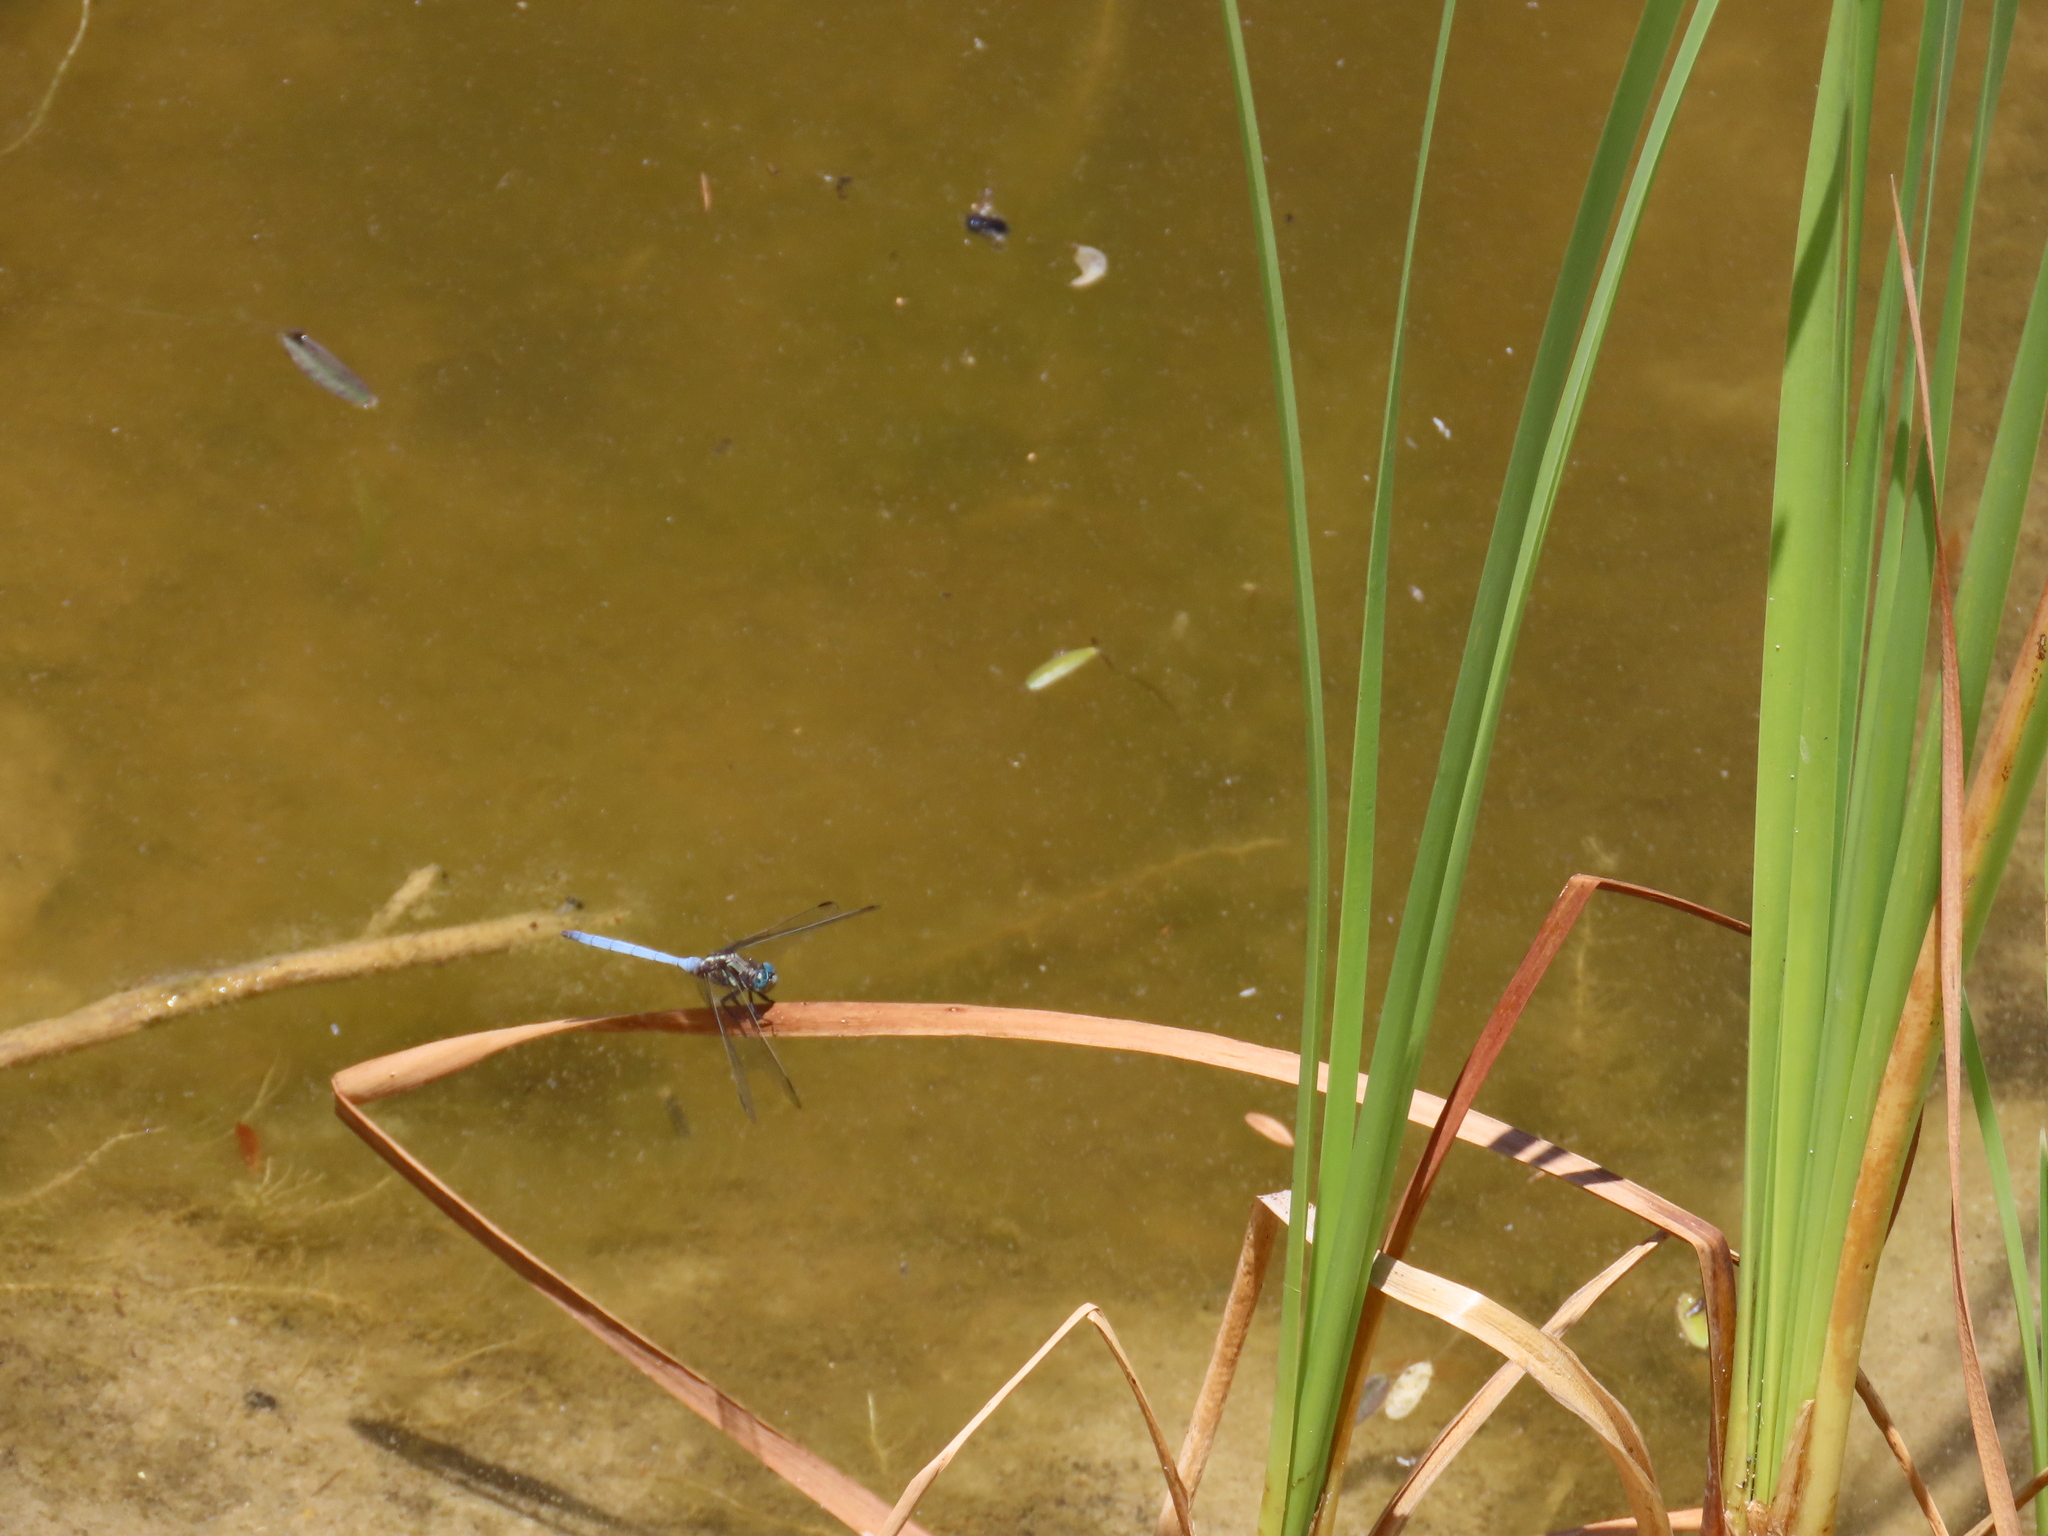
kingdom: Animalia
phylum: Arthropoda
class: Insecta
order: Odonata
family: Libellulidae
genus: Orthetrum
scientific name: Orthetrum julia
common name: Julia skimmer
